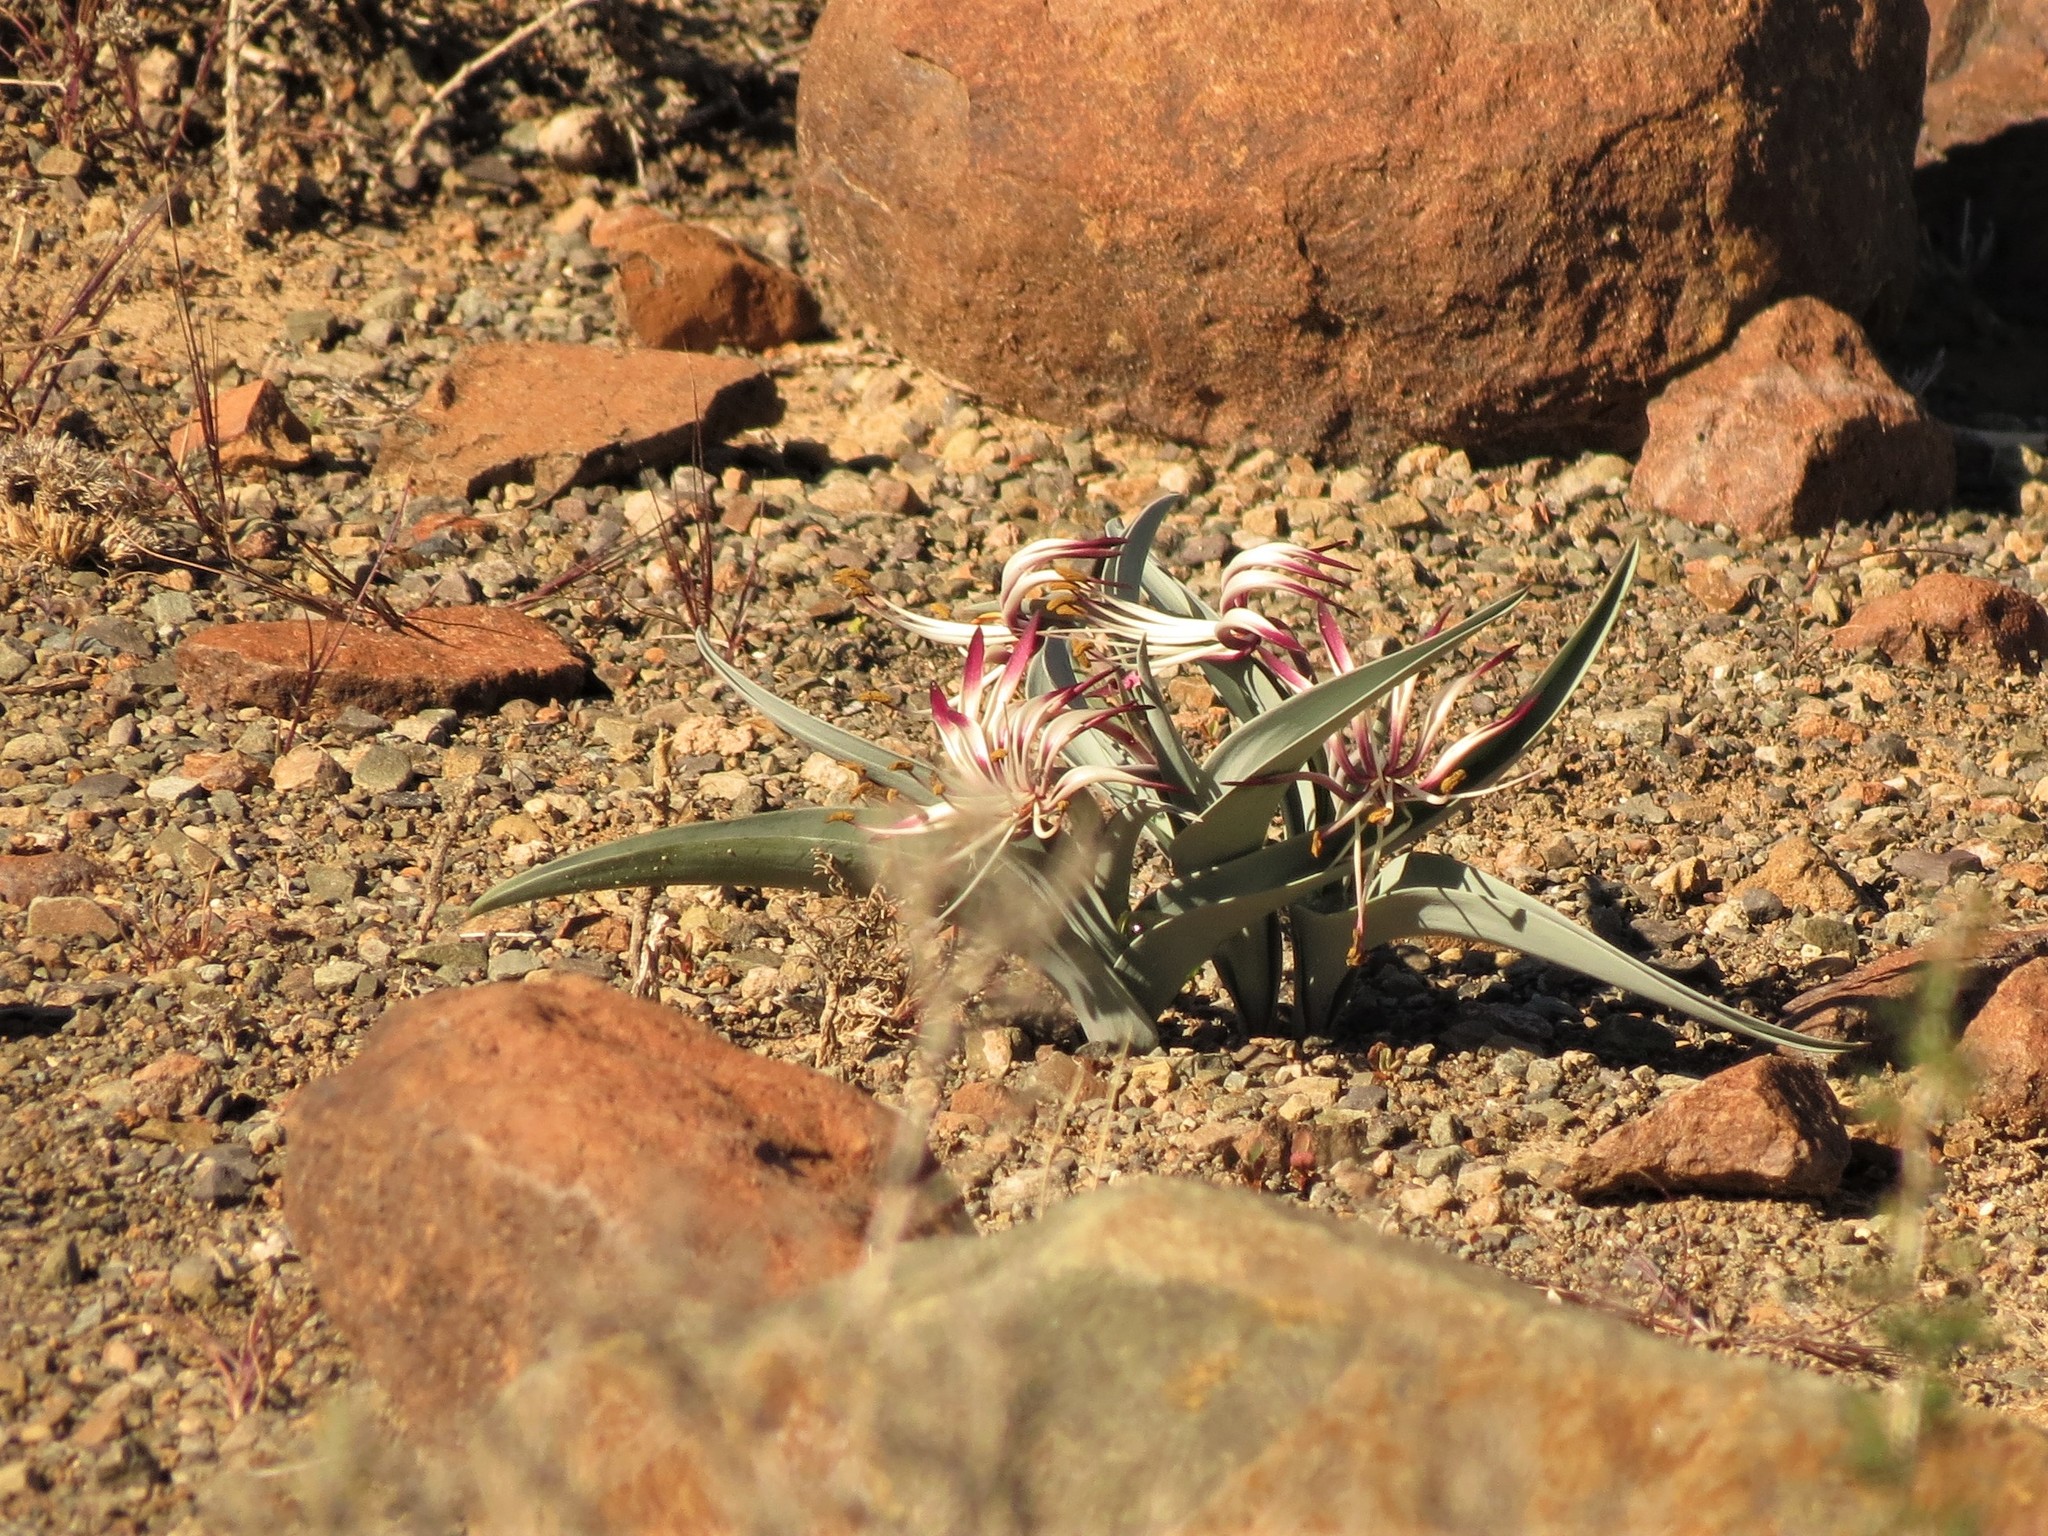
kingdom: Plantae
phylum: Tracheophyta
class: Liliopsida
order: Liliales
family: Colchicaceae
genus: Ornithoglossum
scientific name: Ornithoglossum undulatum
